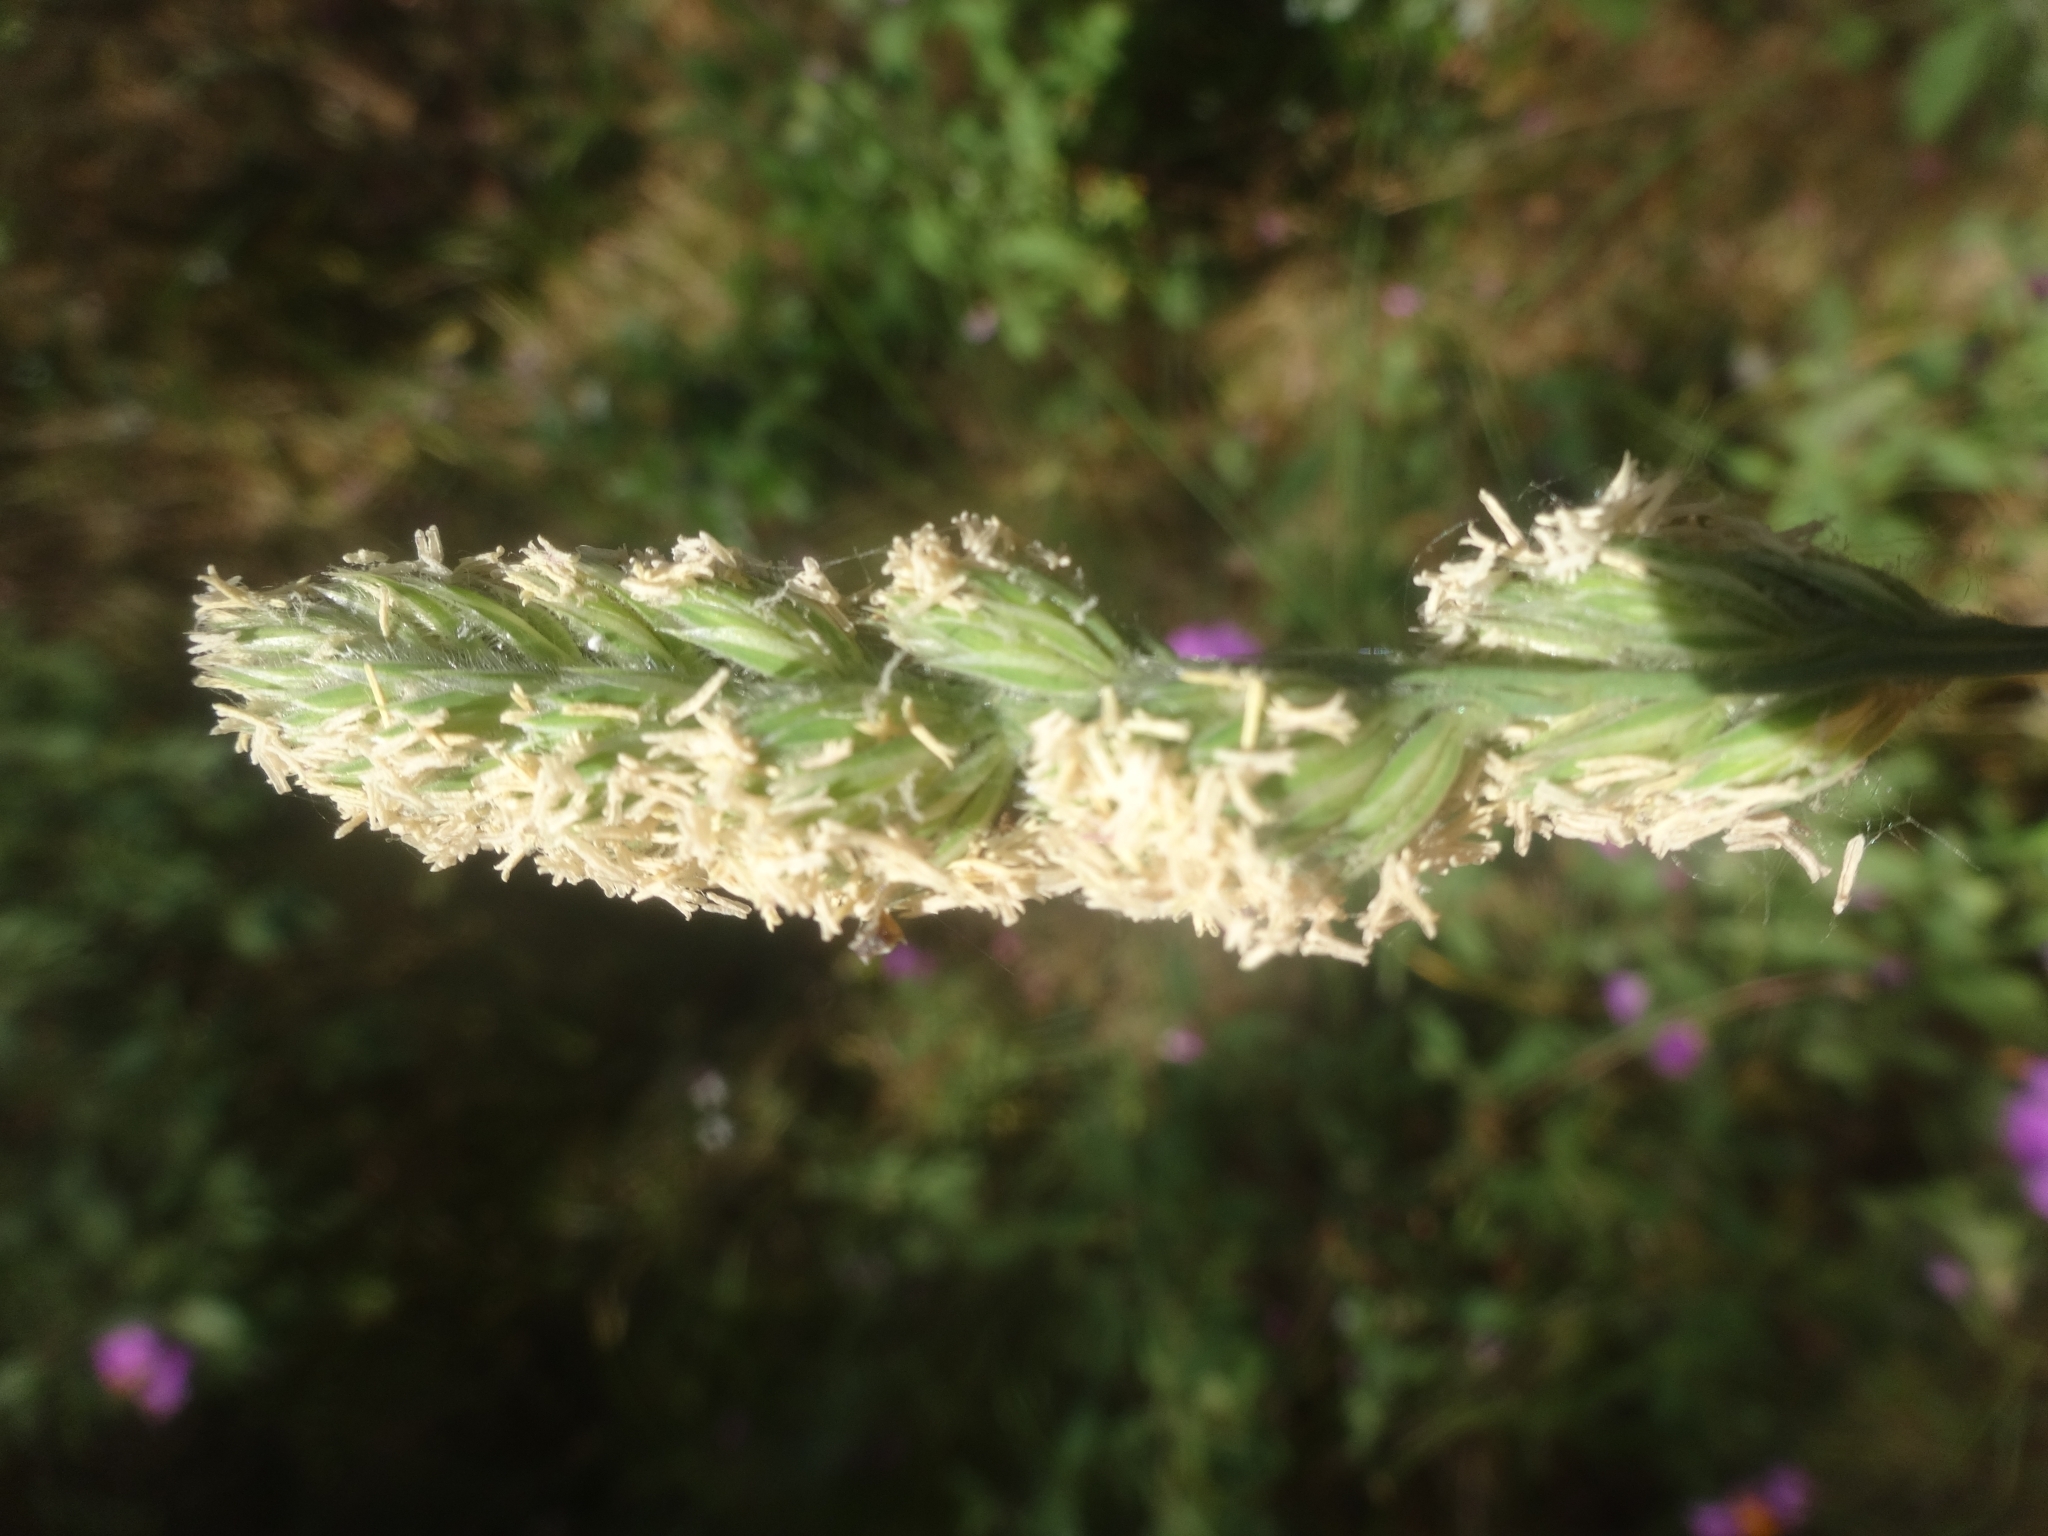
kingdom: Plantae
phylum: Tracheophyta
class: Liliopsida
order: Poales
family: Poaceae
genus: Dactylis
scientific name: Dactylis glomerata
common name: Orchardgrass
